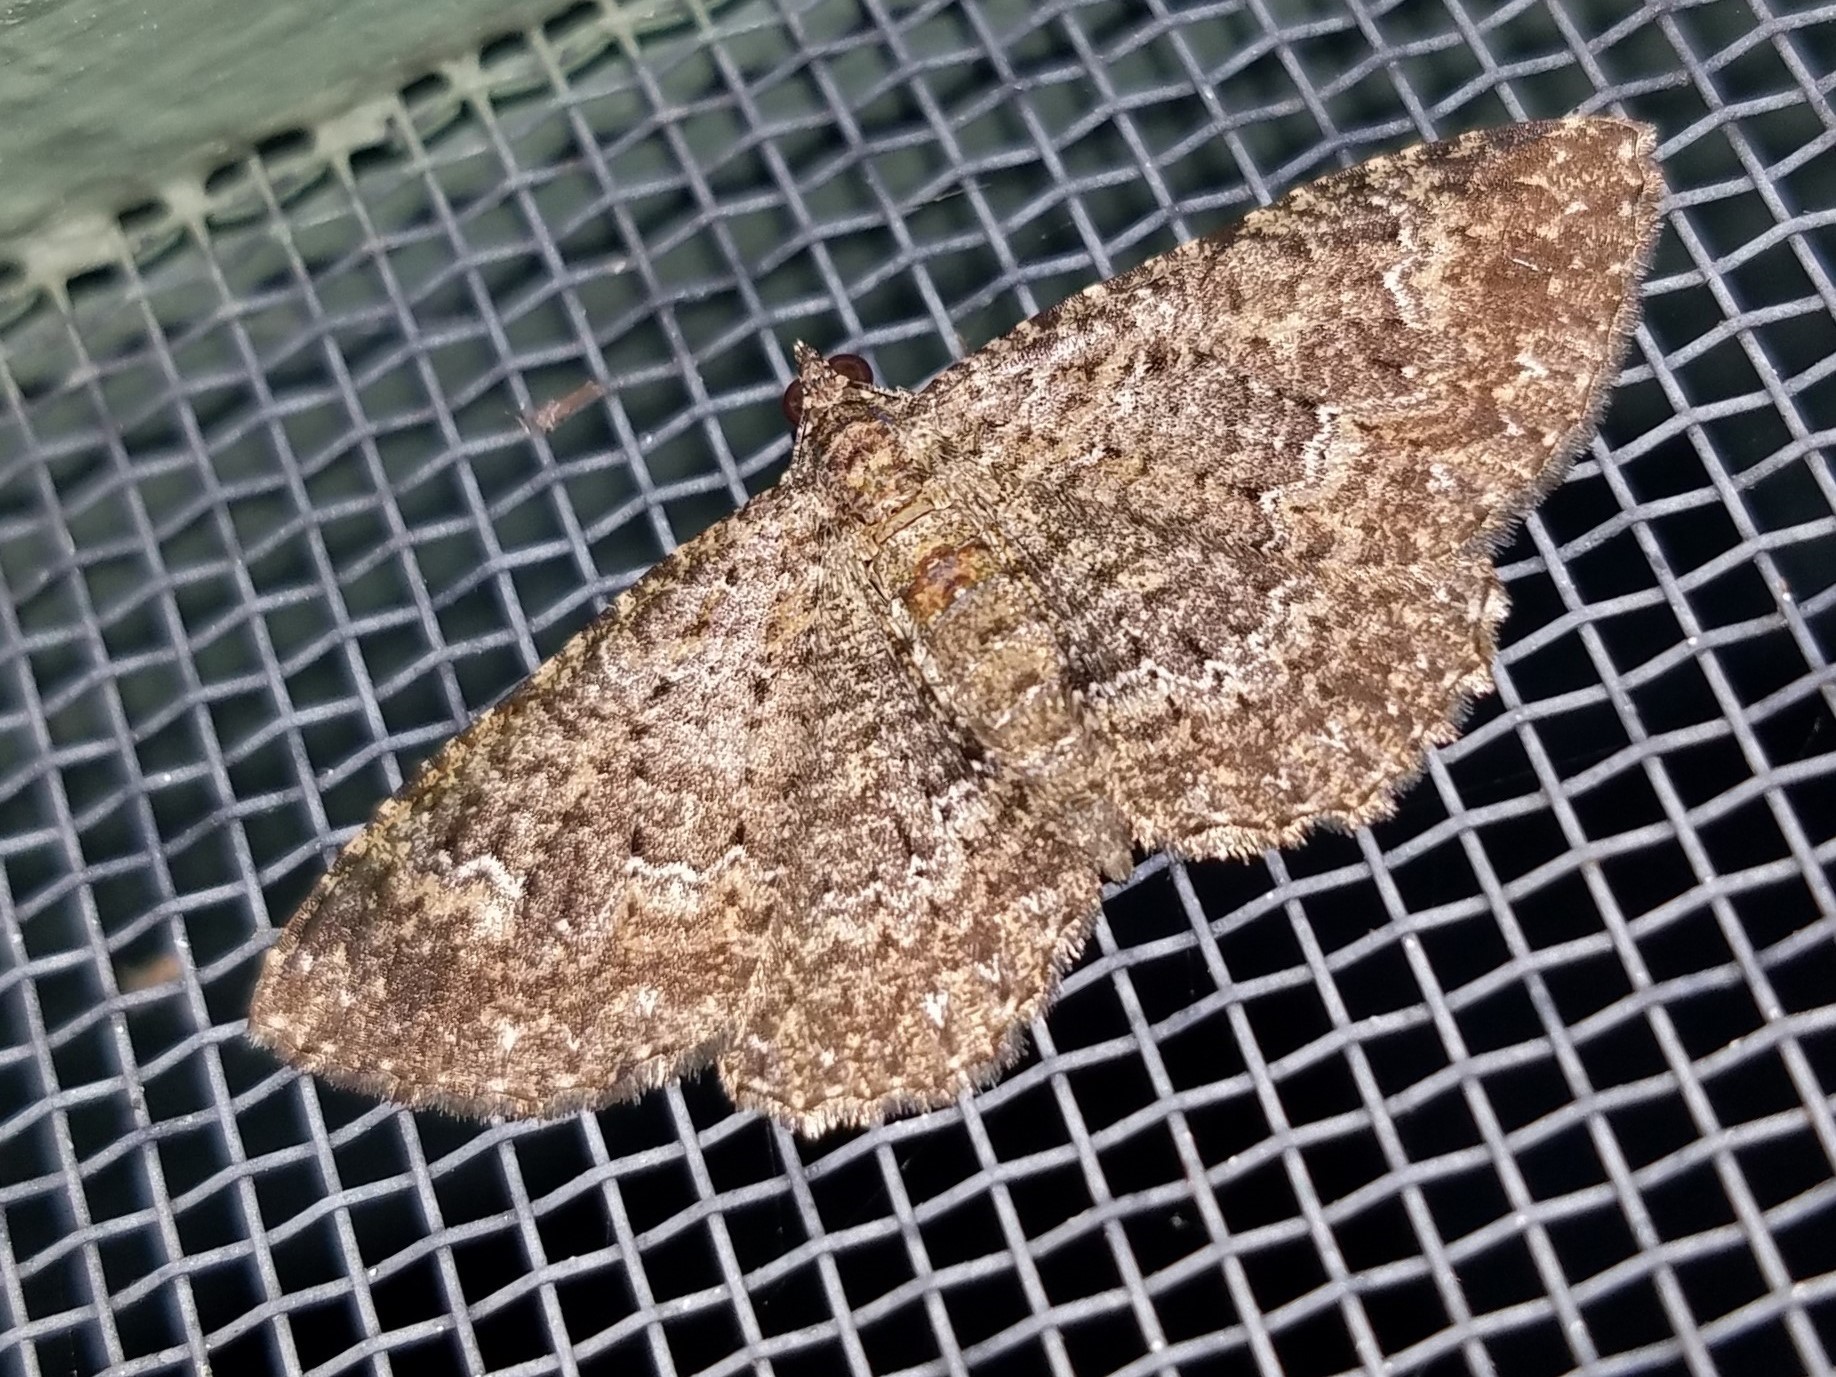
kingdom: Animalia
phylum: Arthropoda
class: Insecta
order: Lepidoptera
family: Geometridae
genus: Disclisioprocta
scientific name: Disclisioprocta stellata
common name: Somber carpet
